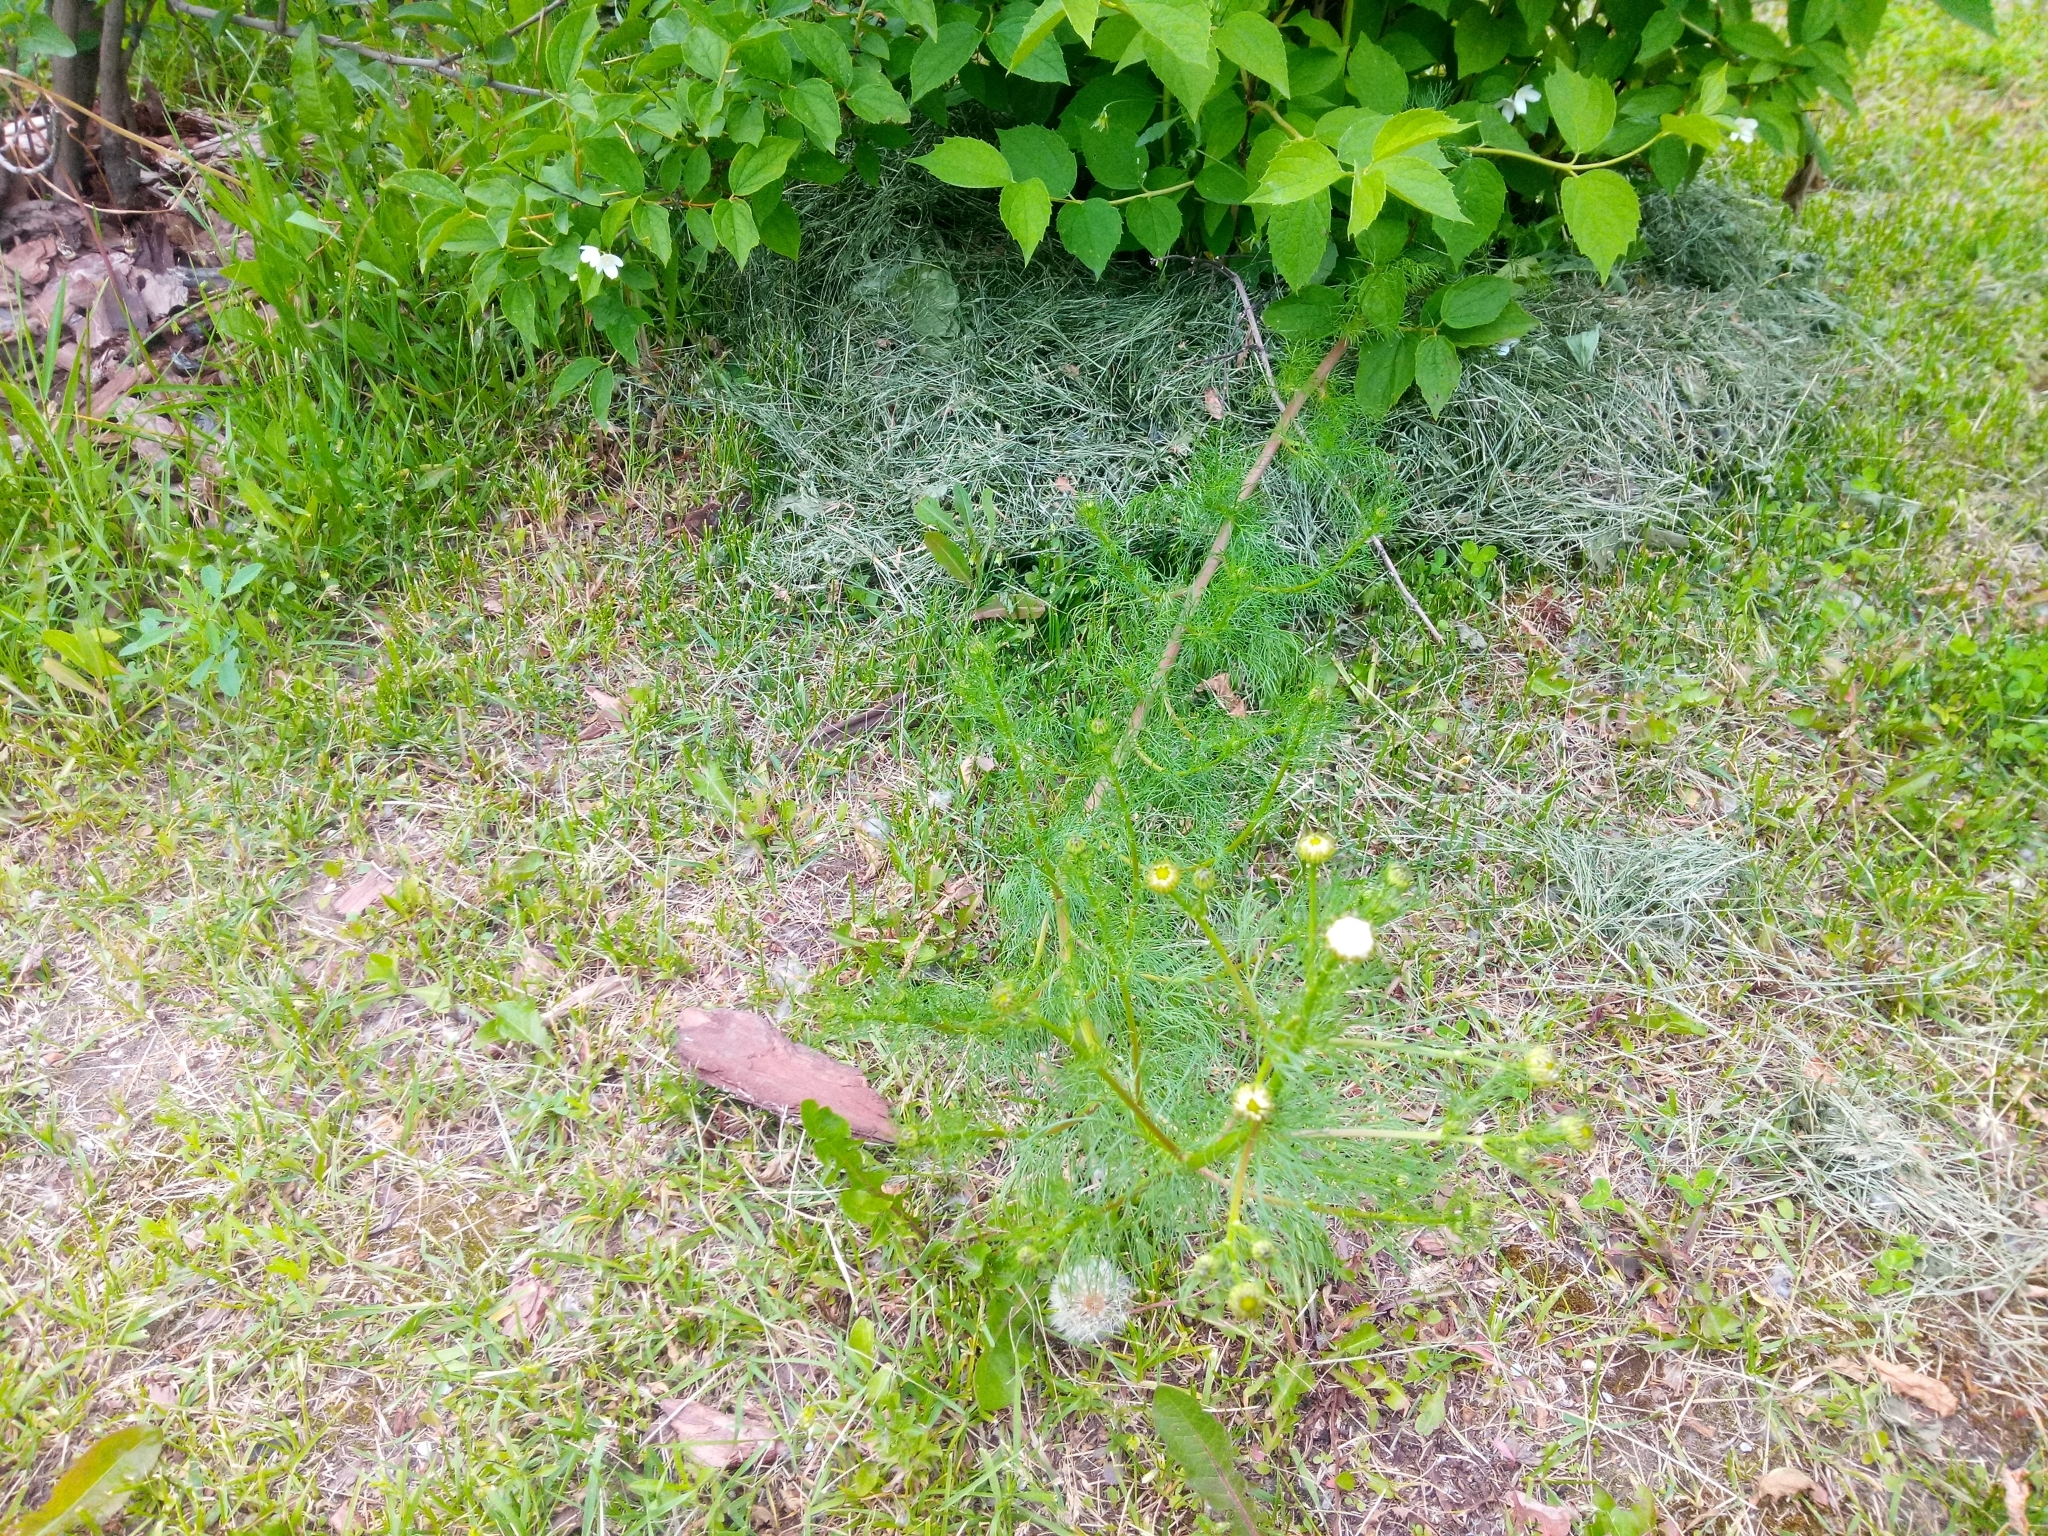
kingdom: Plantae
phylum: Tracheophyta
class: Magnoliopsida
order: Asterales
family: Asteraceae
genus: Tripleurospermum
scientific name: Tripleurospermum inodorum
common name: Scentless mayweed
